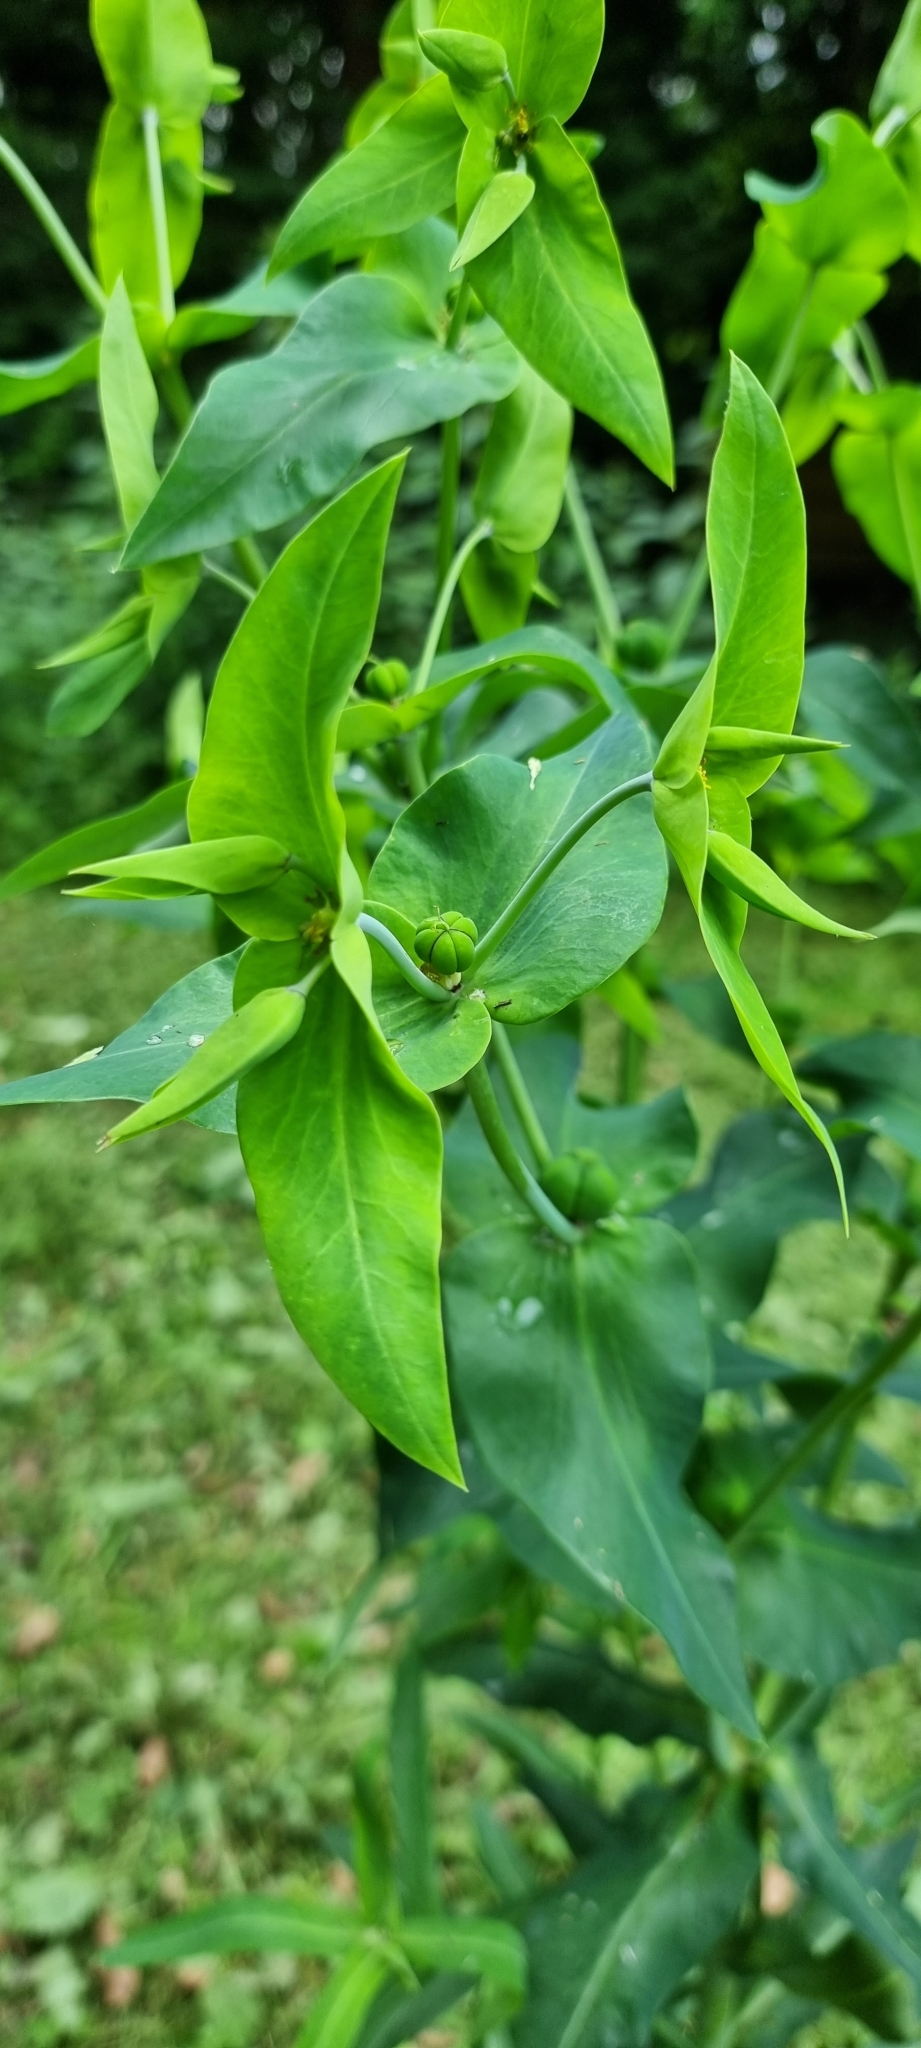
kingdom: Plantae
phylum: Tracheophyta
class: Magnoliopsida
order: Malpighiales
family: Euphorbiaceae
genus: Euphorbia
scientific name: Euphorbia lathyris
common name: Caper spurge
